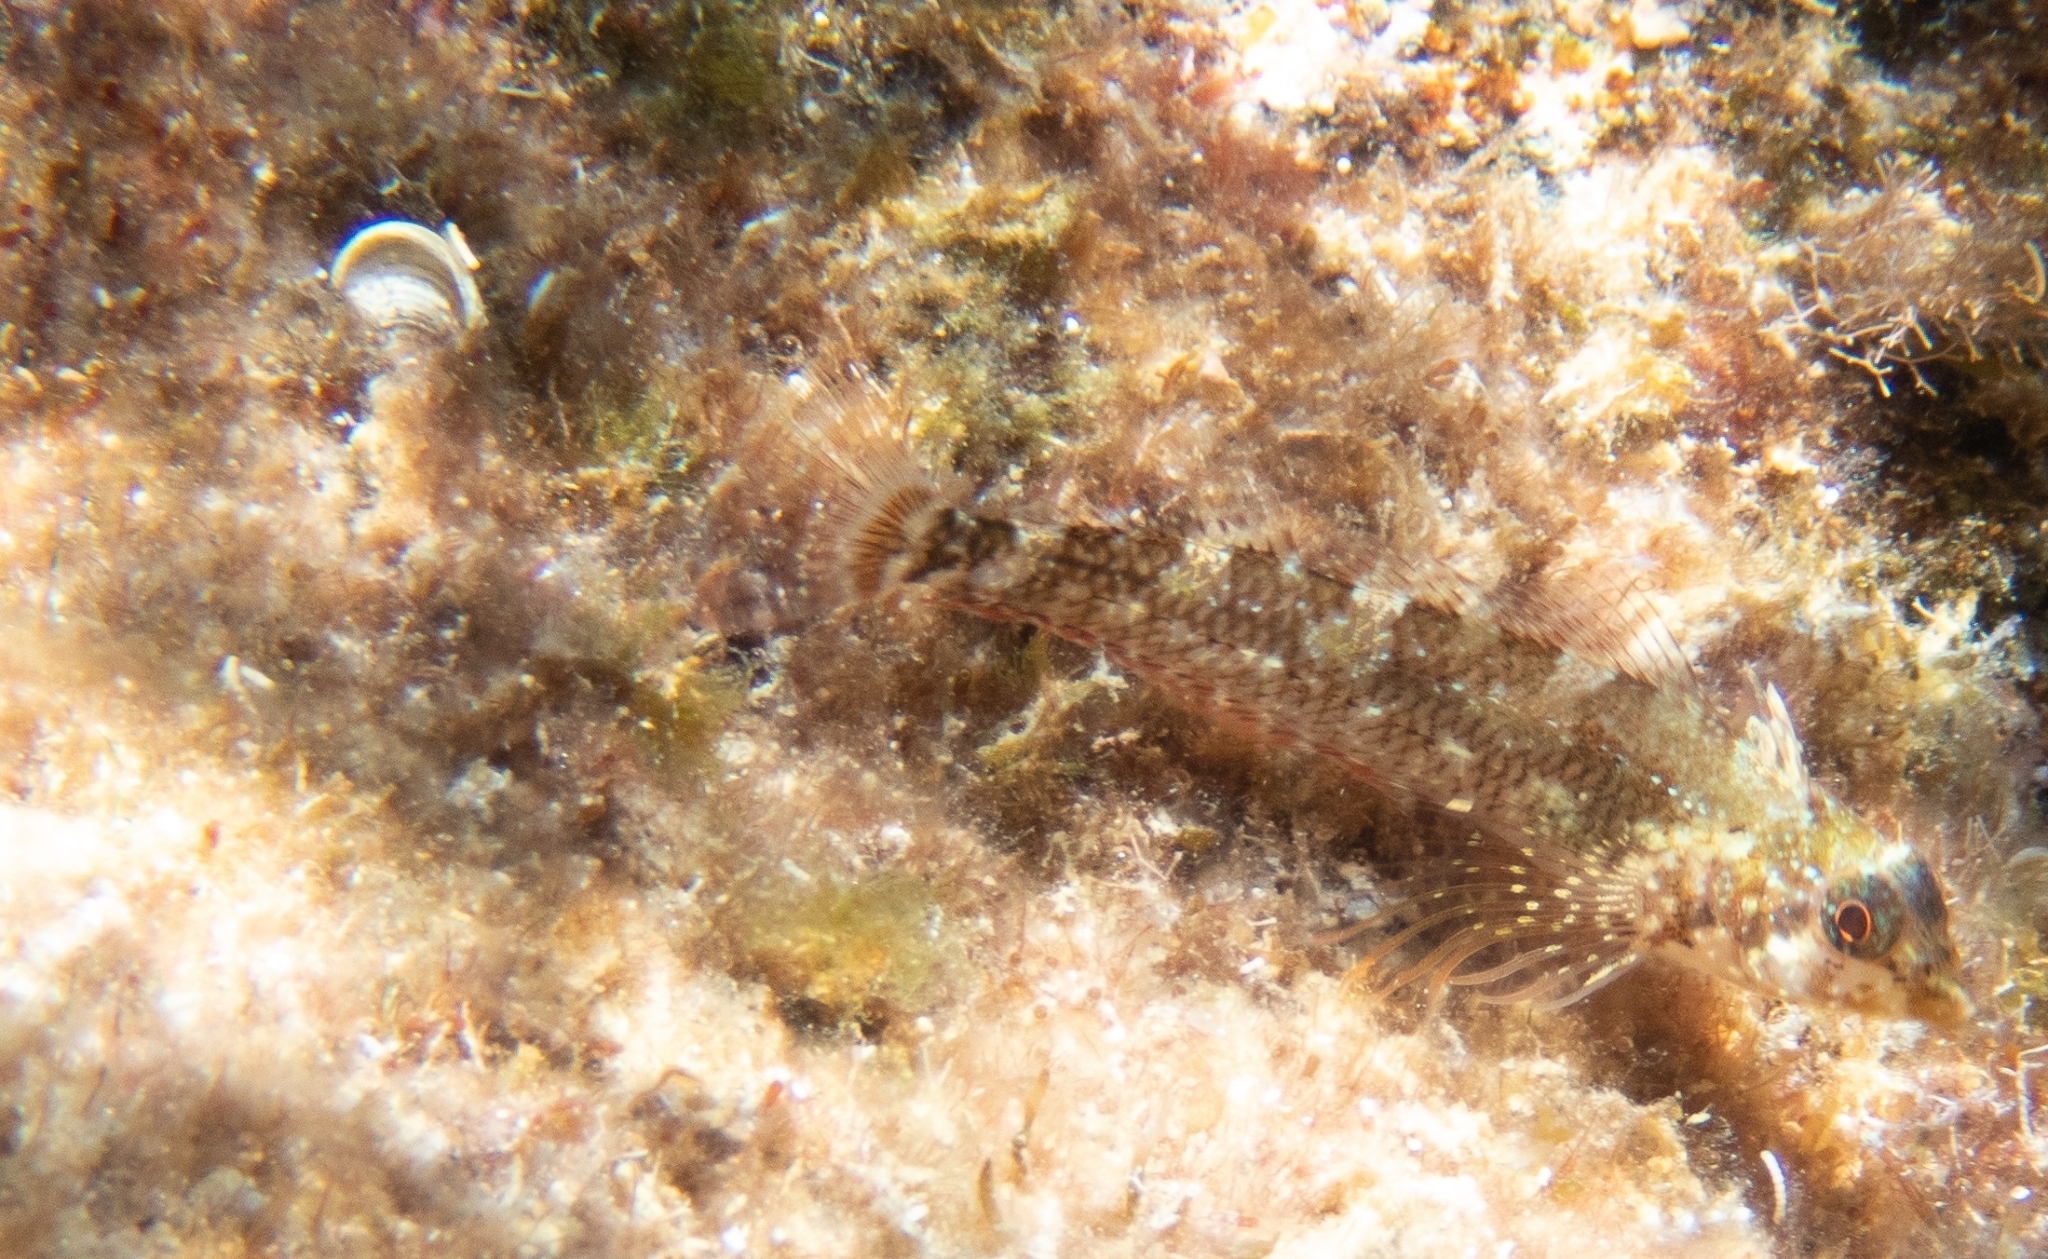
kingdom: Animalia
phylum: Chordata
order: Perciformes
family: Tripterygiidae
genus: Tripterygion
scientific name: Tripterygion tripteronotum
